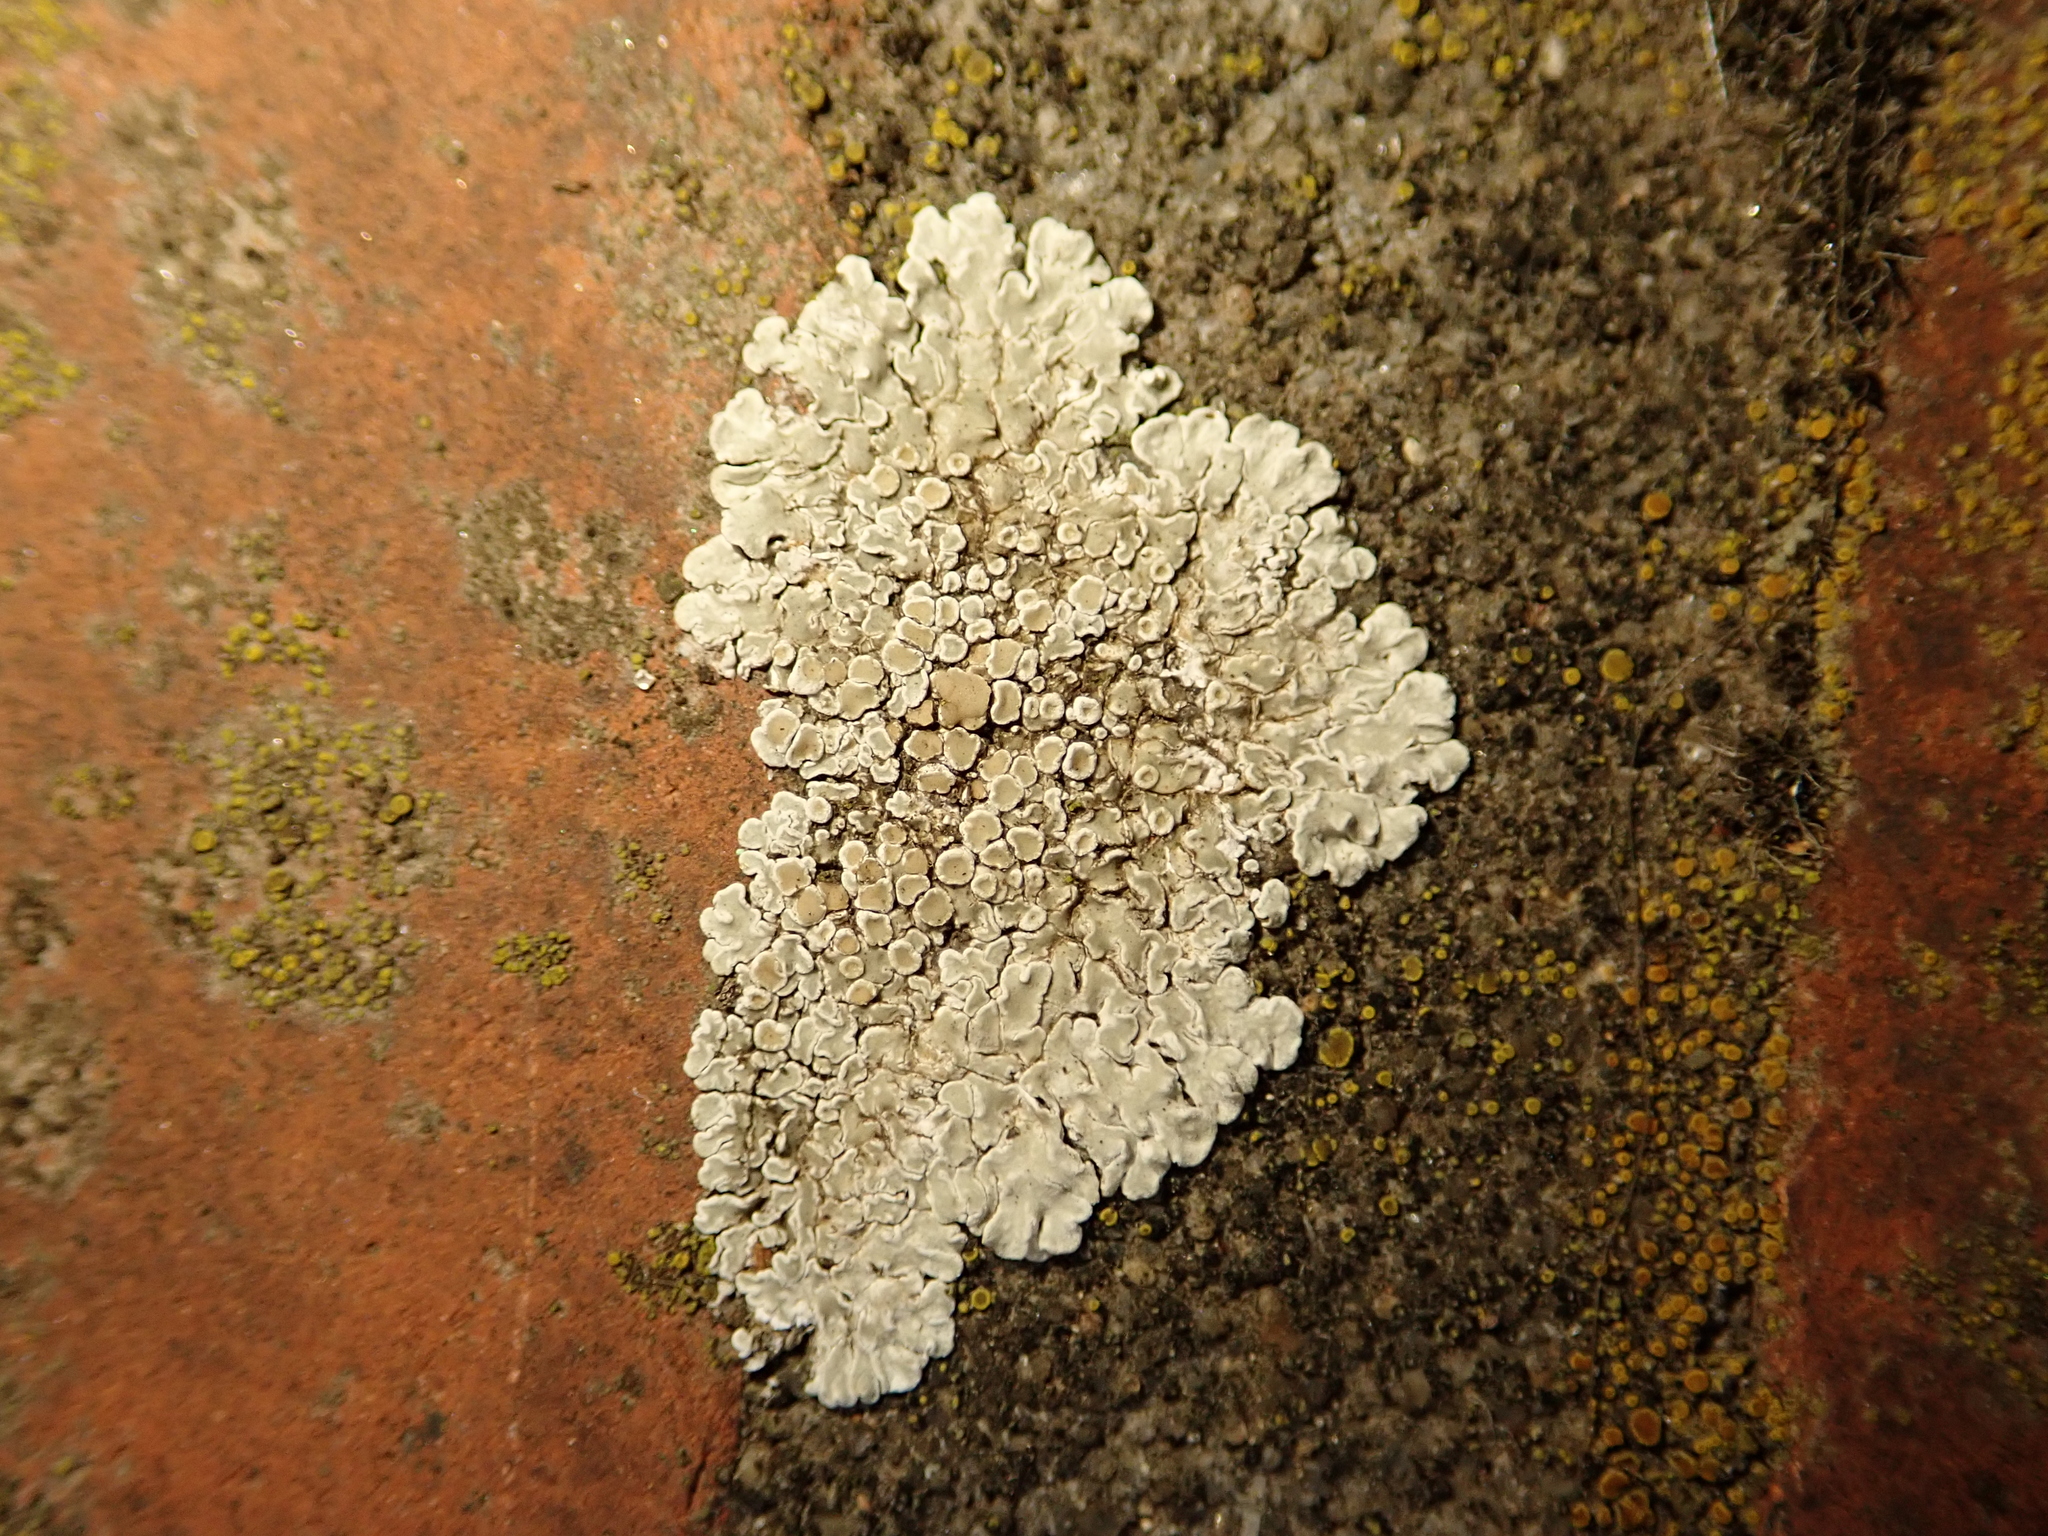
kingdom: Fungi
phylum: Ascomycota
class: Lecanoromycetes
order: Lecanorales
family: Lecanoraceae
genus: Protoparmeliopsis
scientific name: Protoparmeliopsis muralis
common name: Stonewall rim lichen
